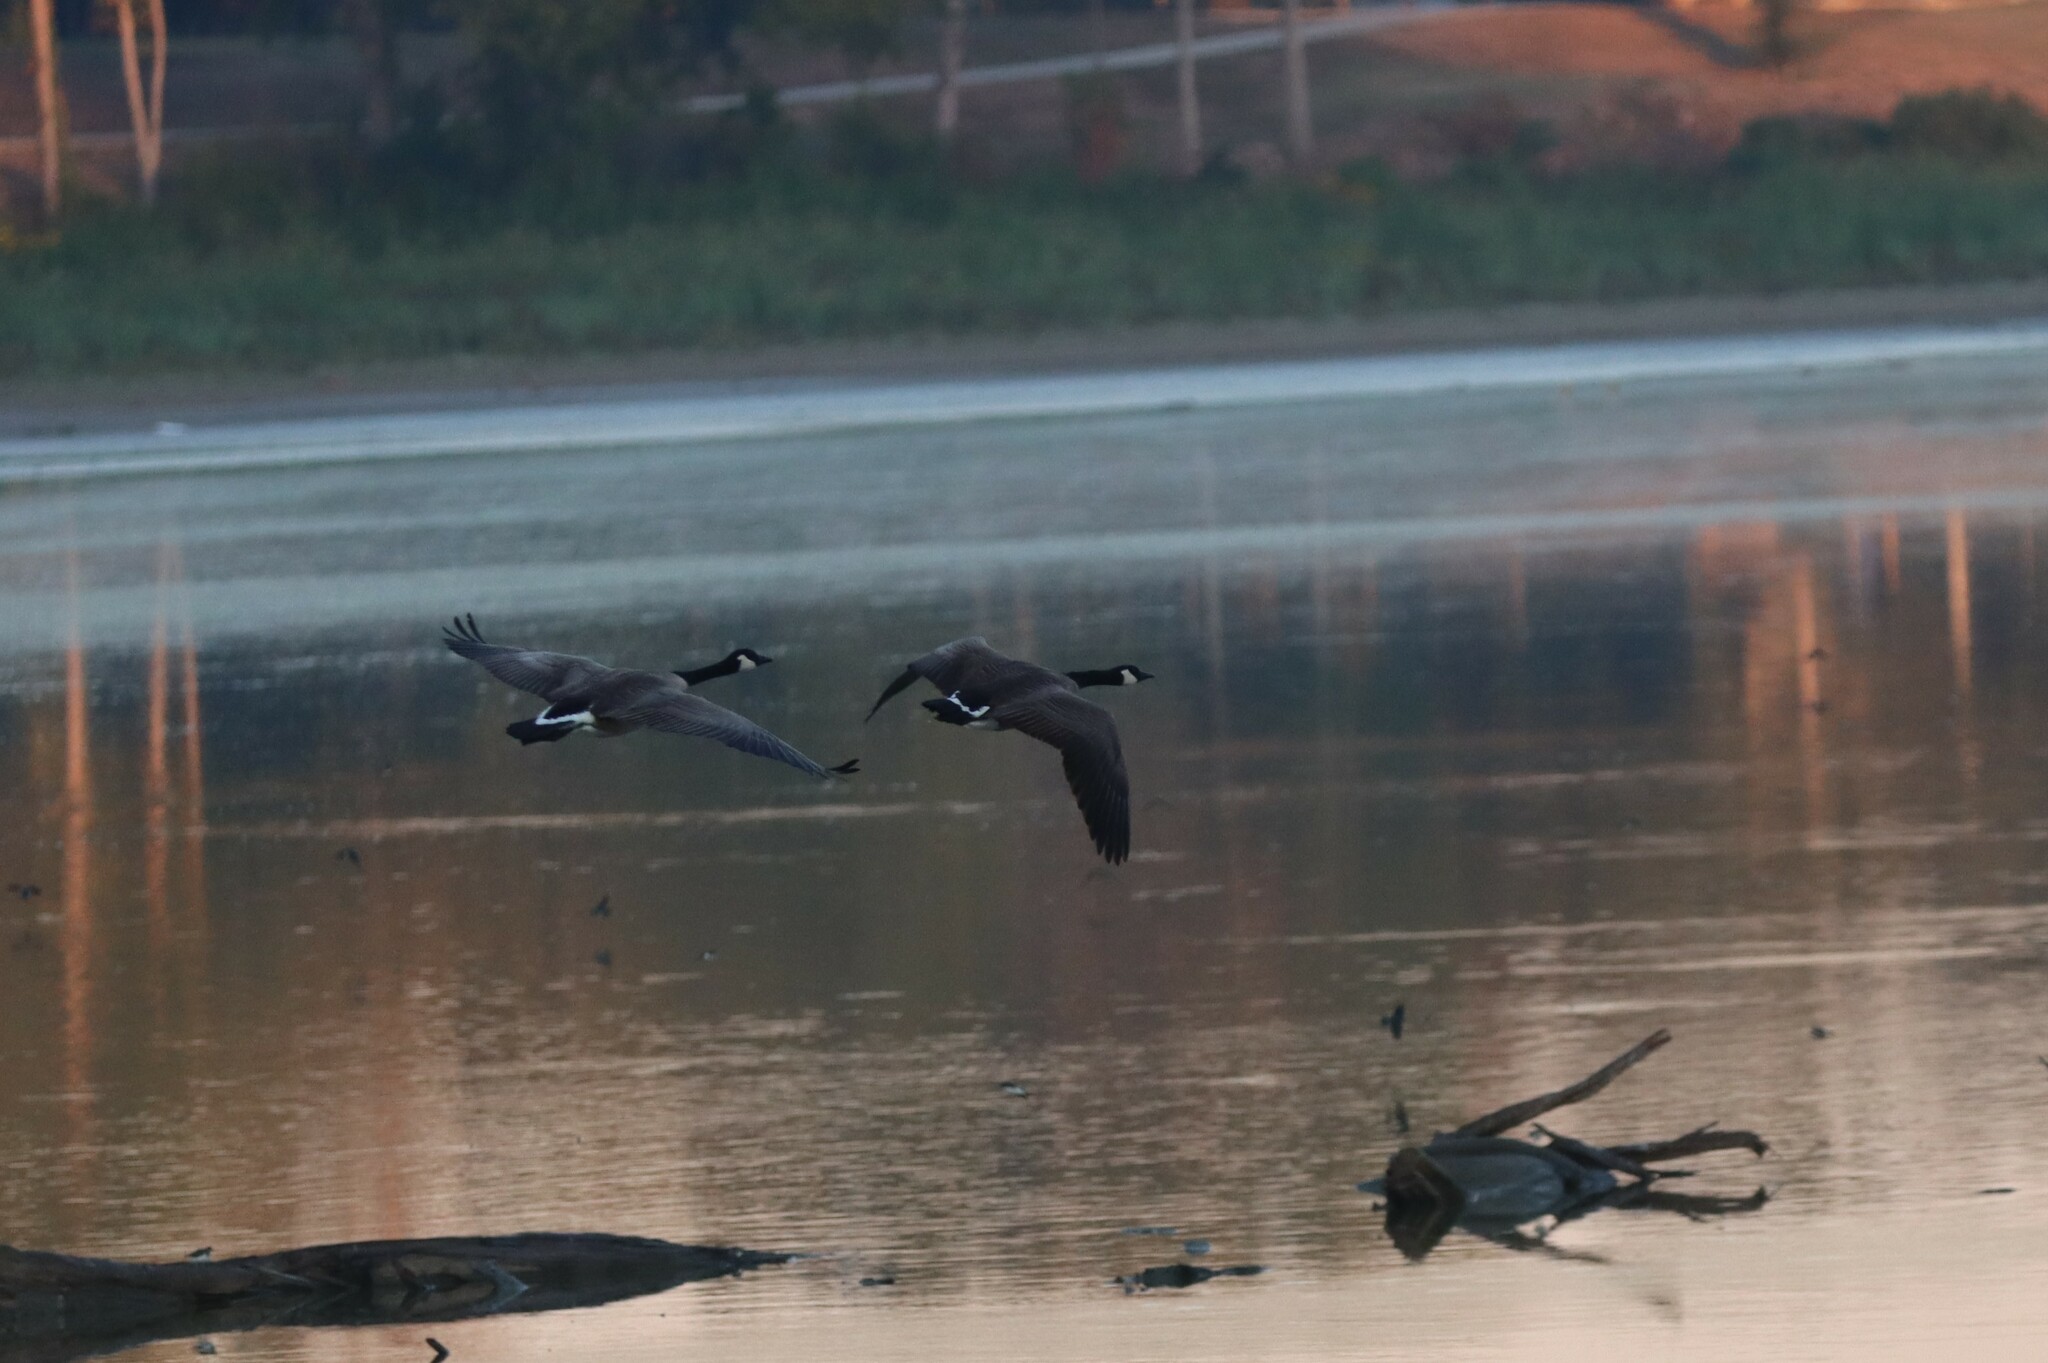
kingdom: Animalia
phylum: Chordata
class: Aves
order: Anseriformes
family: Anatidae
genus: Branta
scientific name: Branta canadensis
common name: Canada goose
